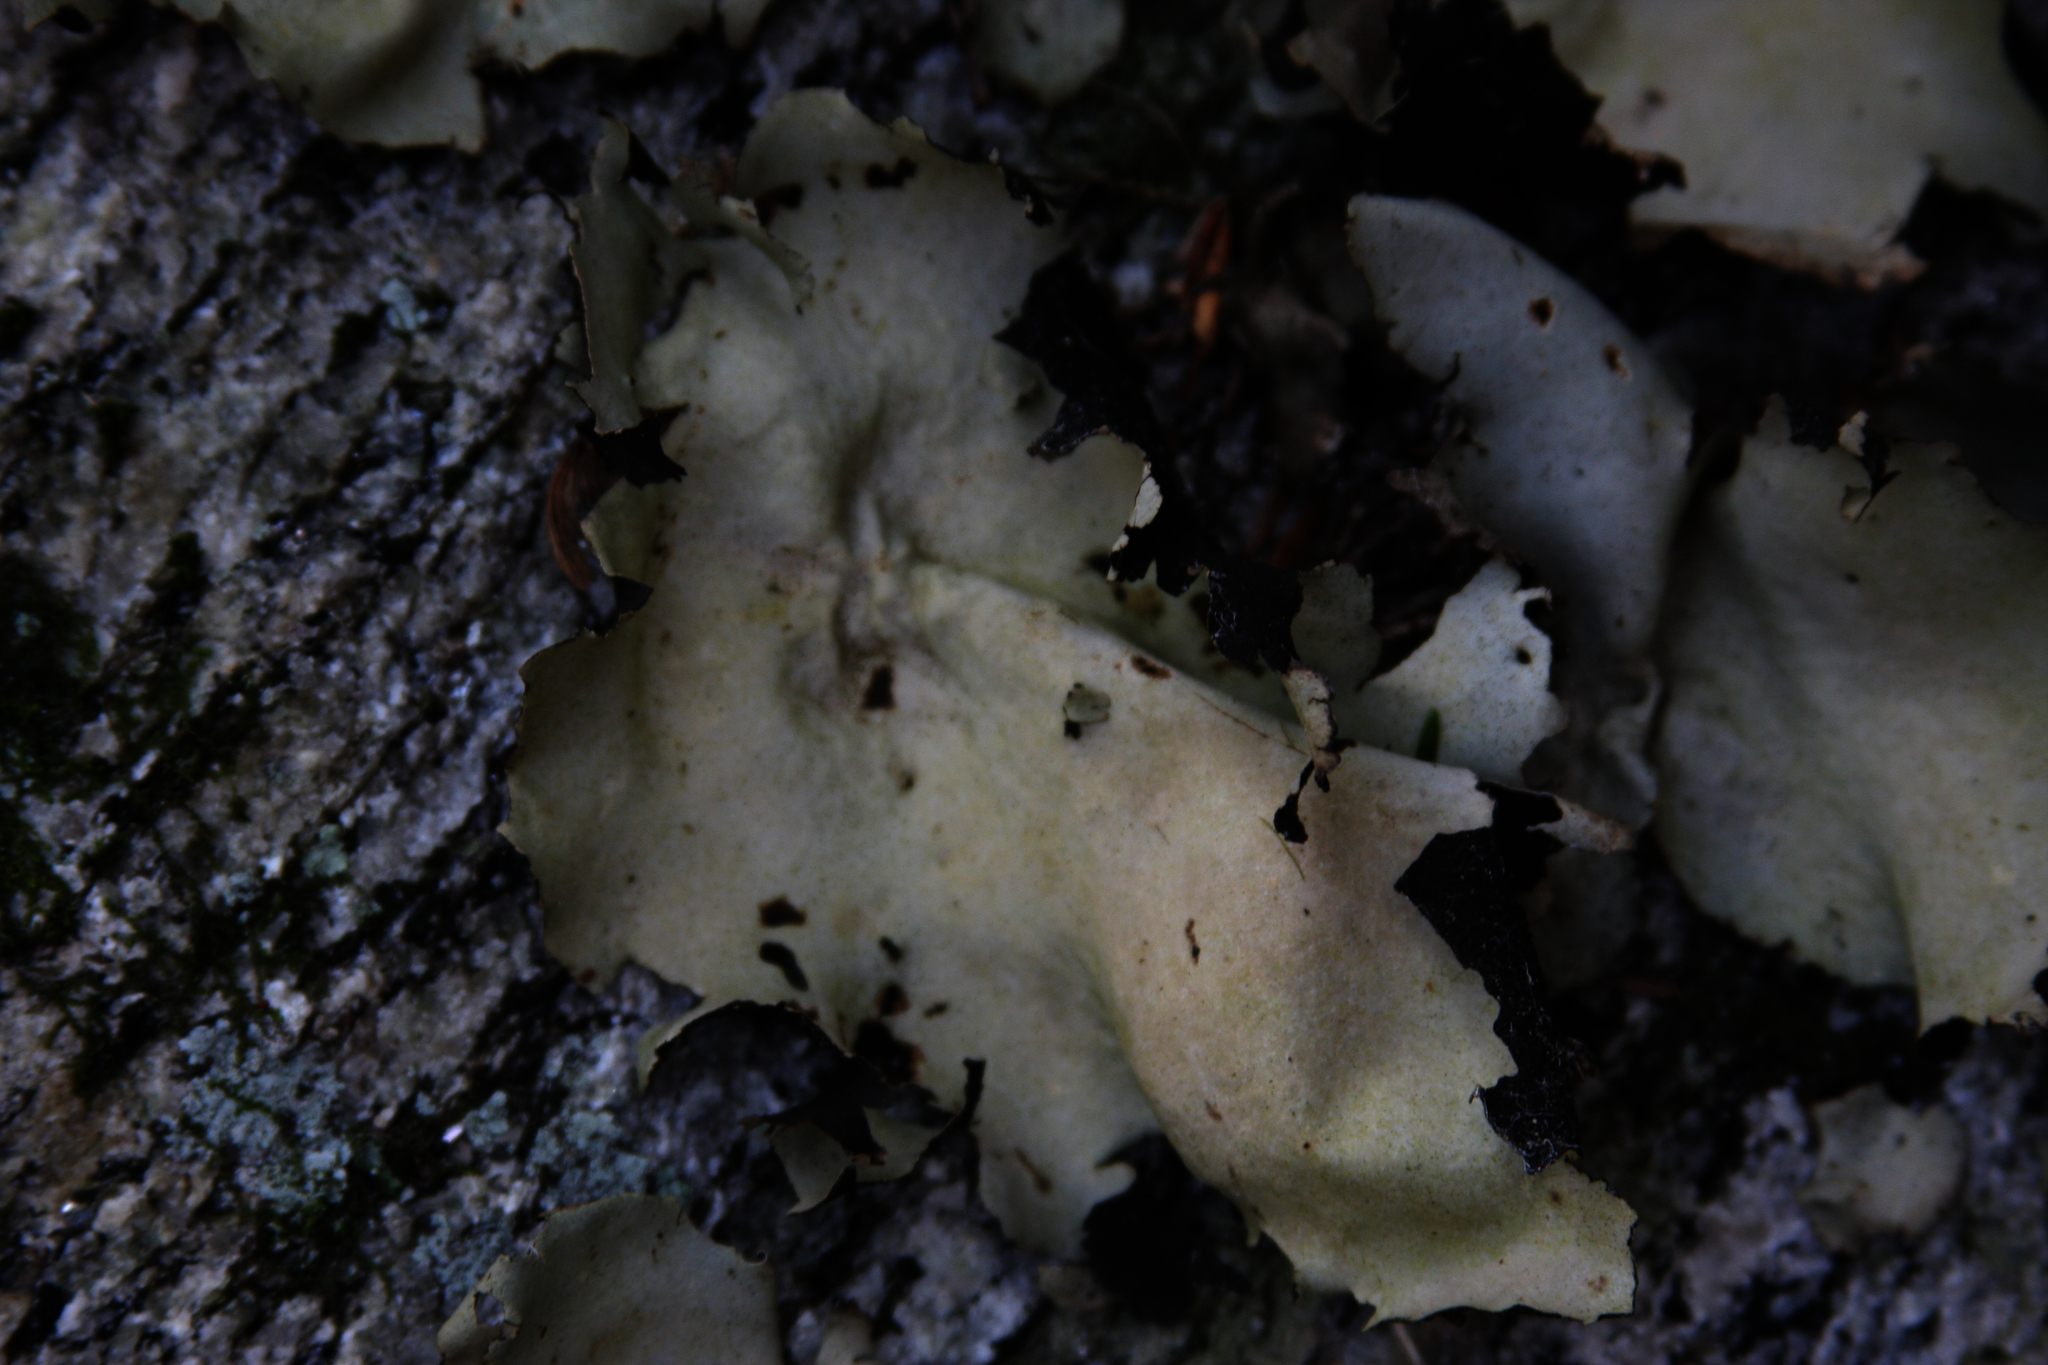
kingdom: Fungi
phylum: Ascomycota
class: Lecanoromycetes
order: Umbilicariales
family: Umbilicariaceae
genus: Umbilicaria
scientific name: Umbilicaria mammulata
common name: Smooth rock tripe
